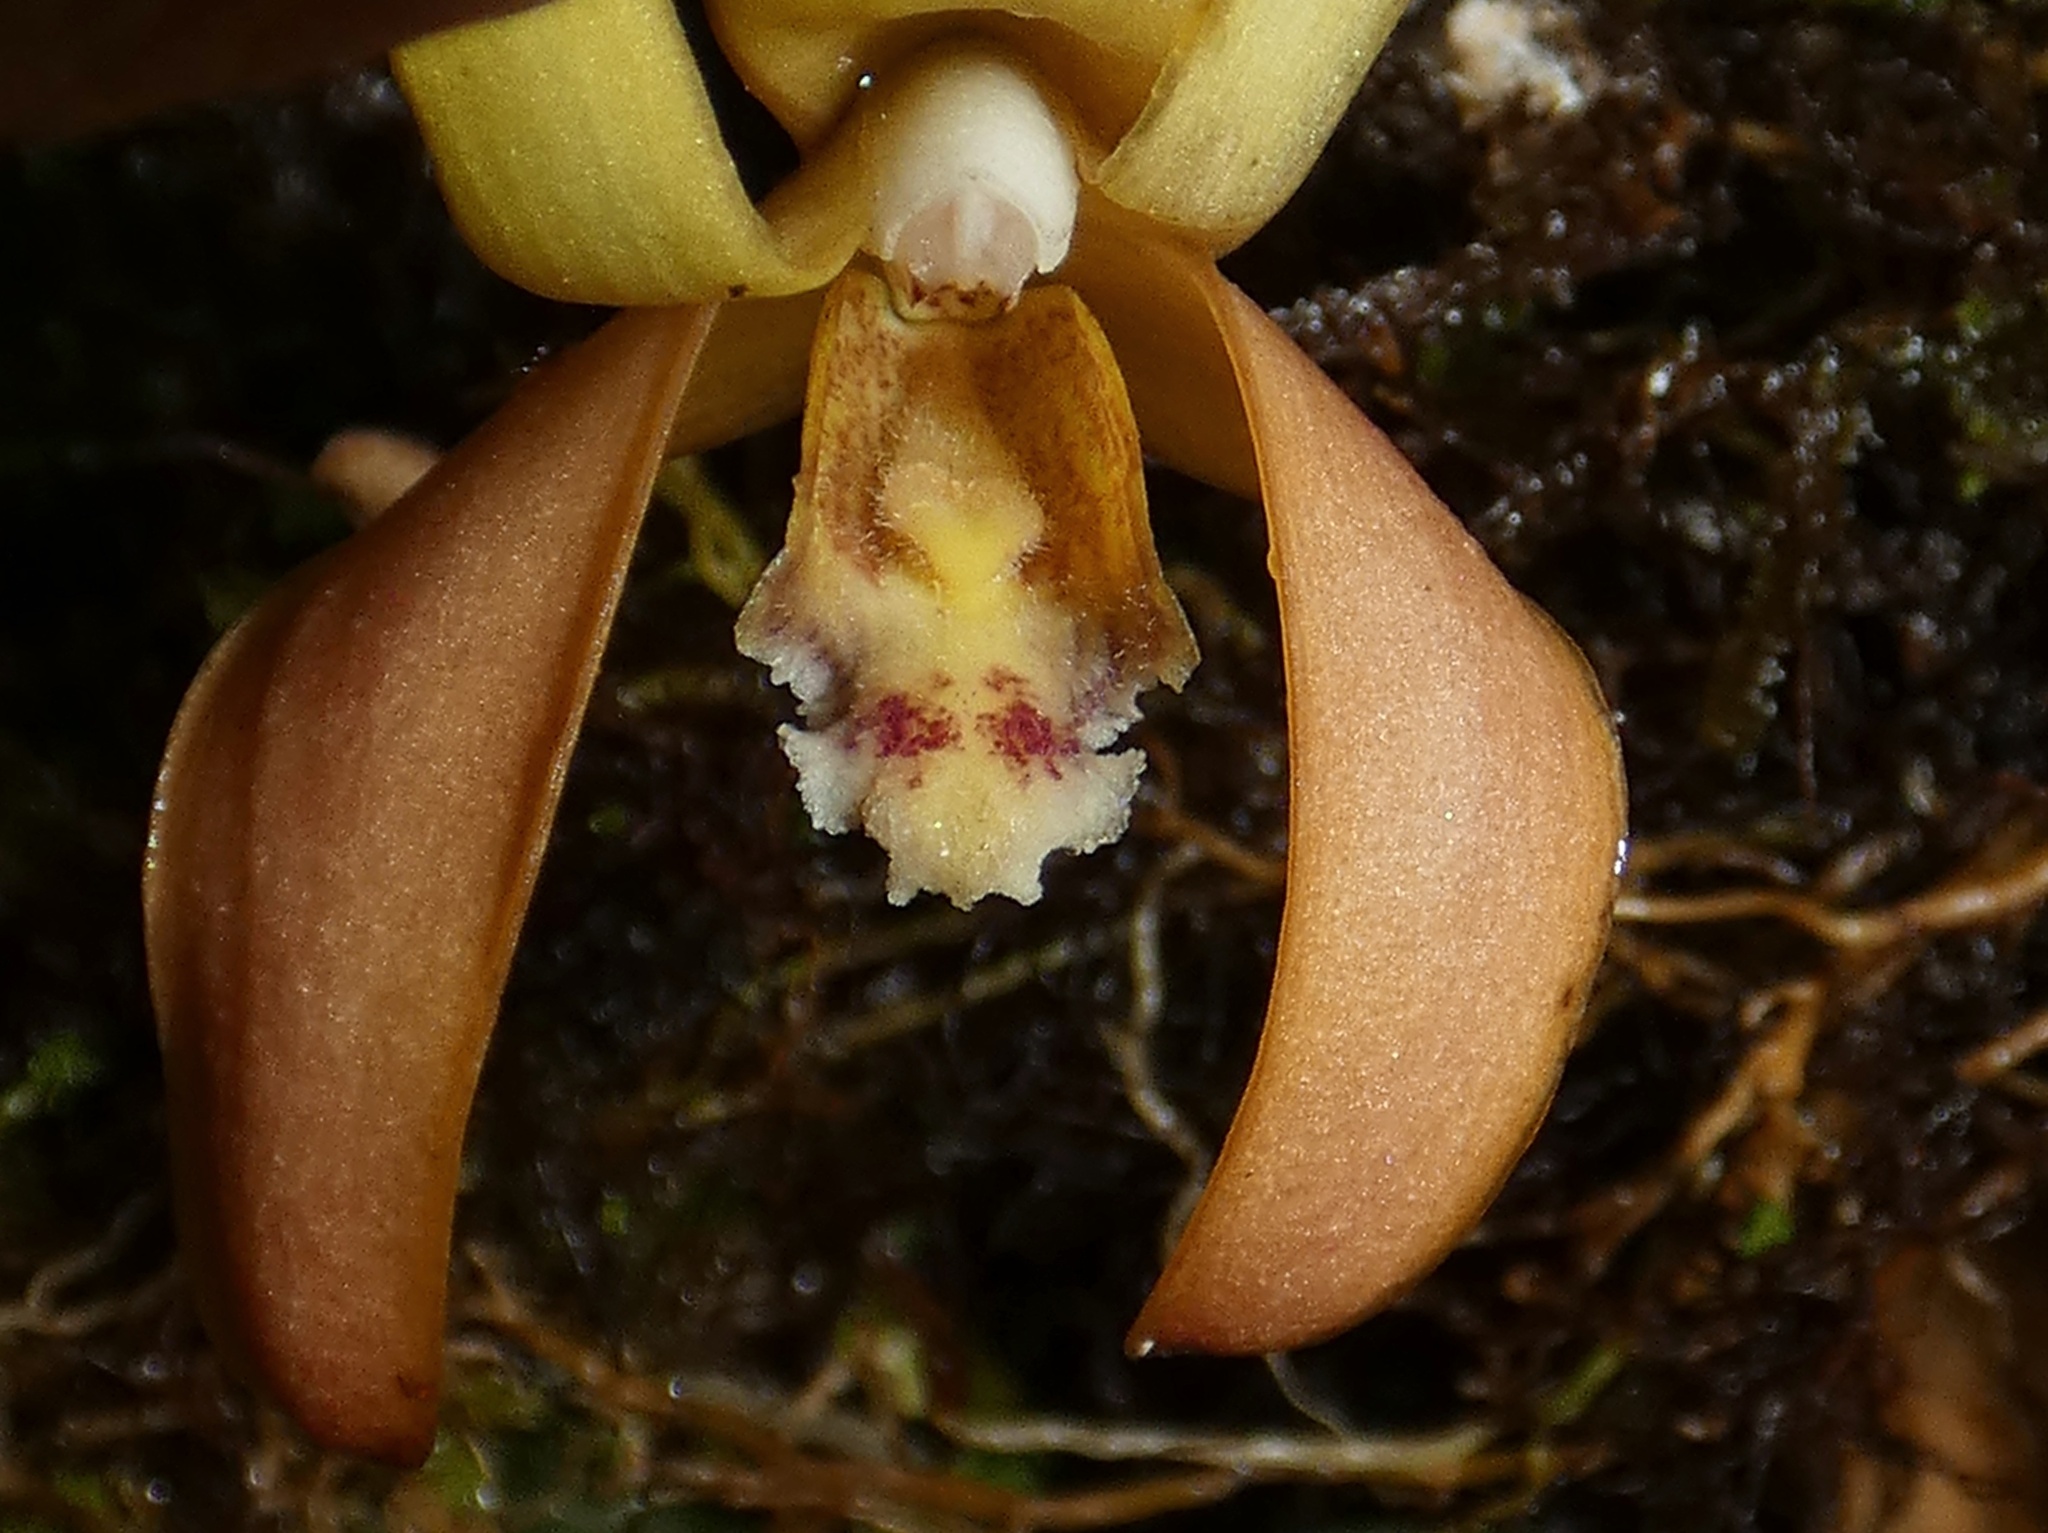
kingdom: Plantae
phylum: Tracheophyta
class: Liliopsida
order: Asparagales
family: Orchidaceae
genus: Maxillaria
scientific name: Maxillaria porrecta
